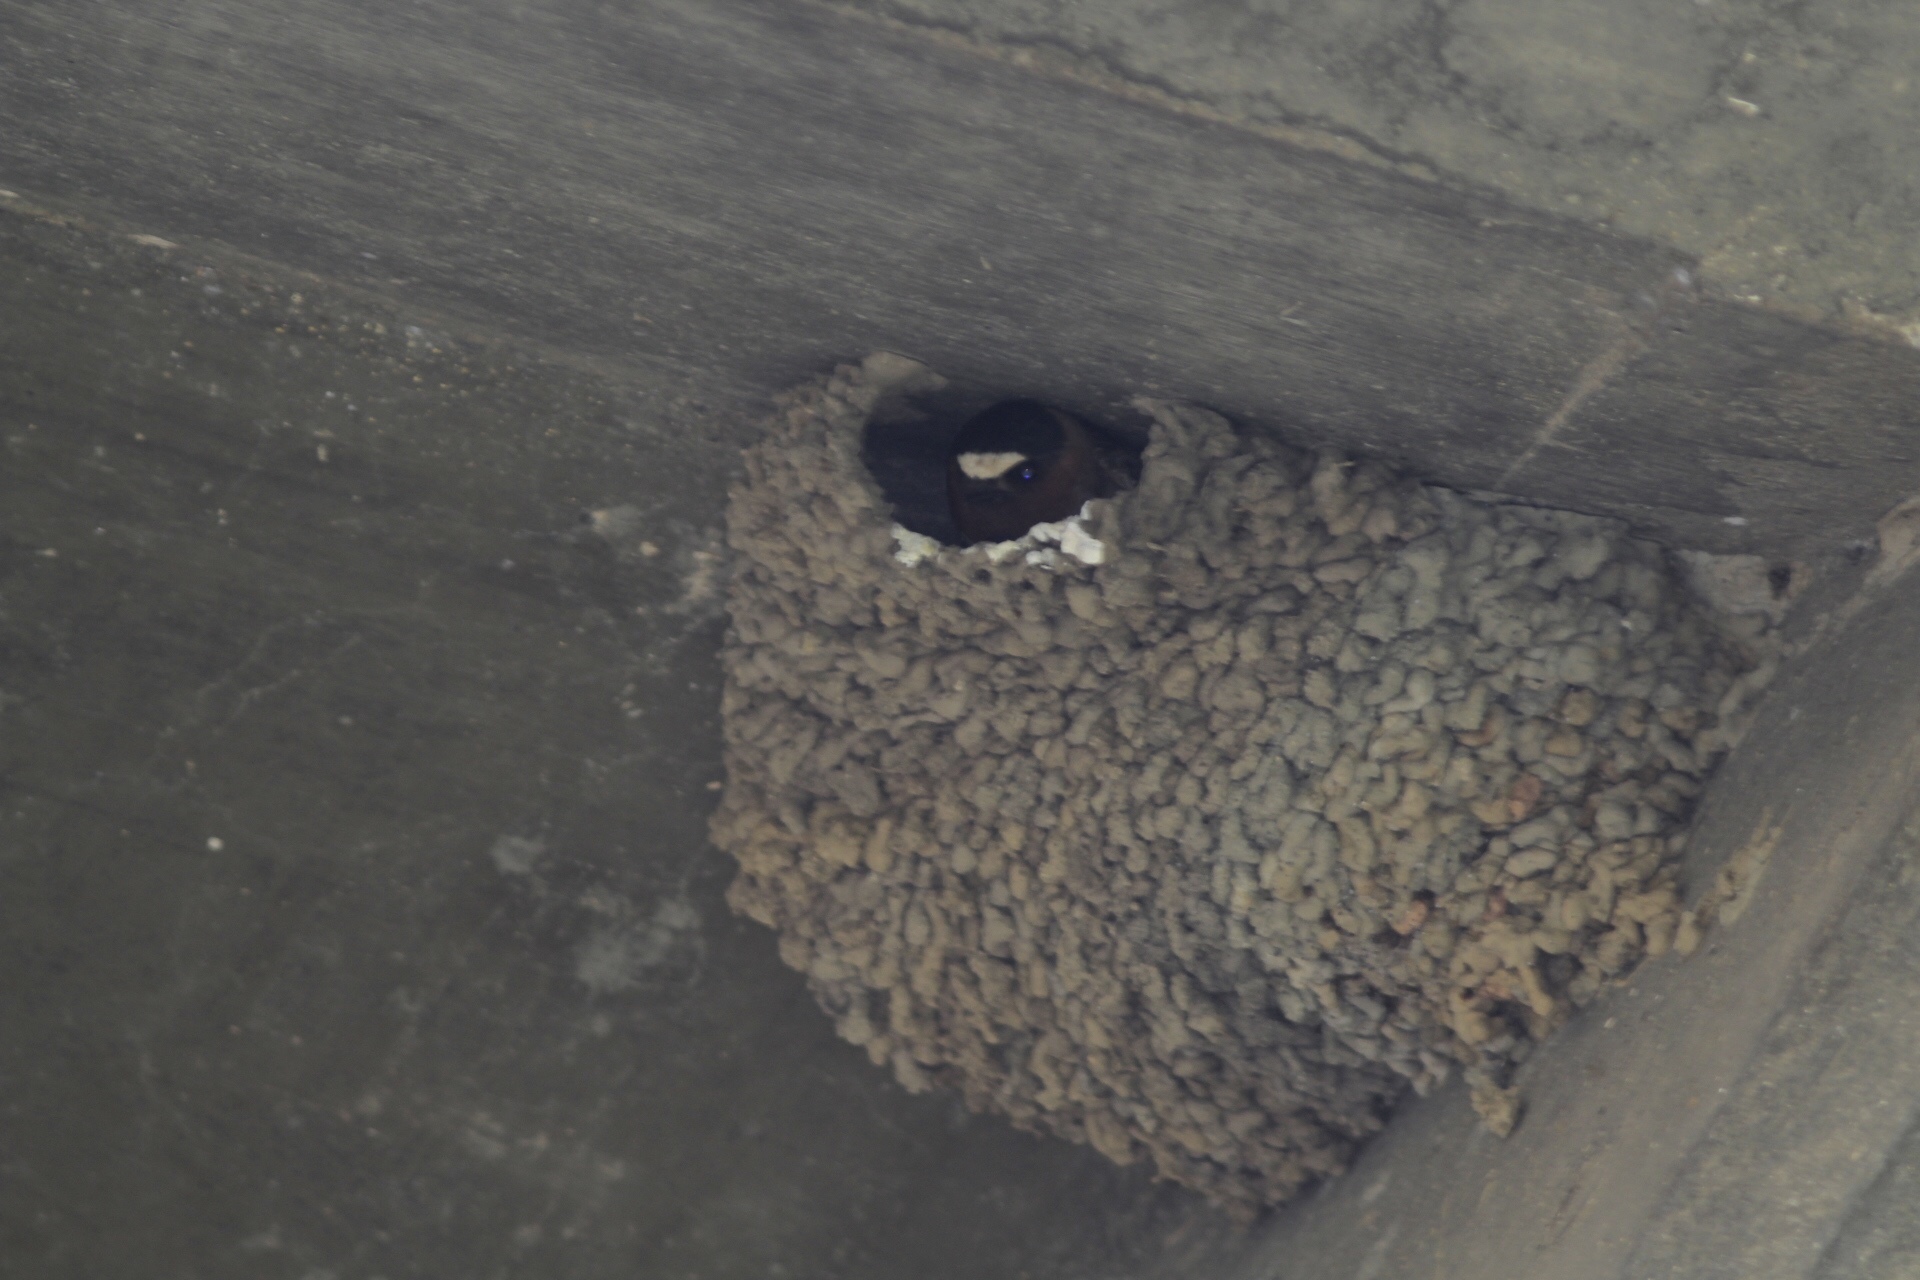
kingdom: Animalia
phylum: Chordata
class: Aves
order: Passeriformes
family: Hirundinidae
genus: Petrochelidon
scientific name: Petrochelidon pyrrhonota
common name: American cliff swallow
